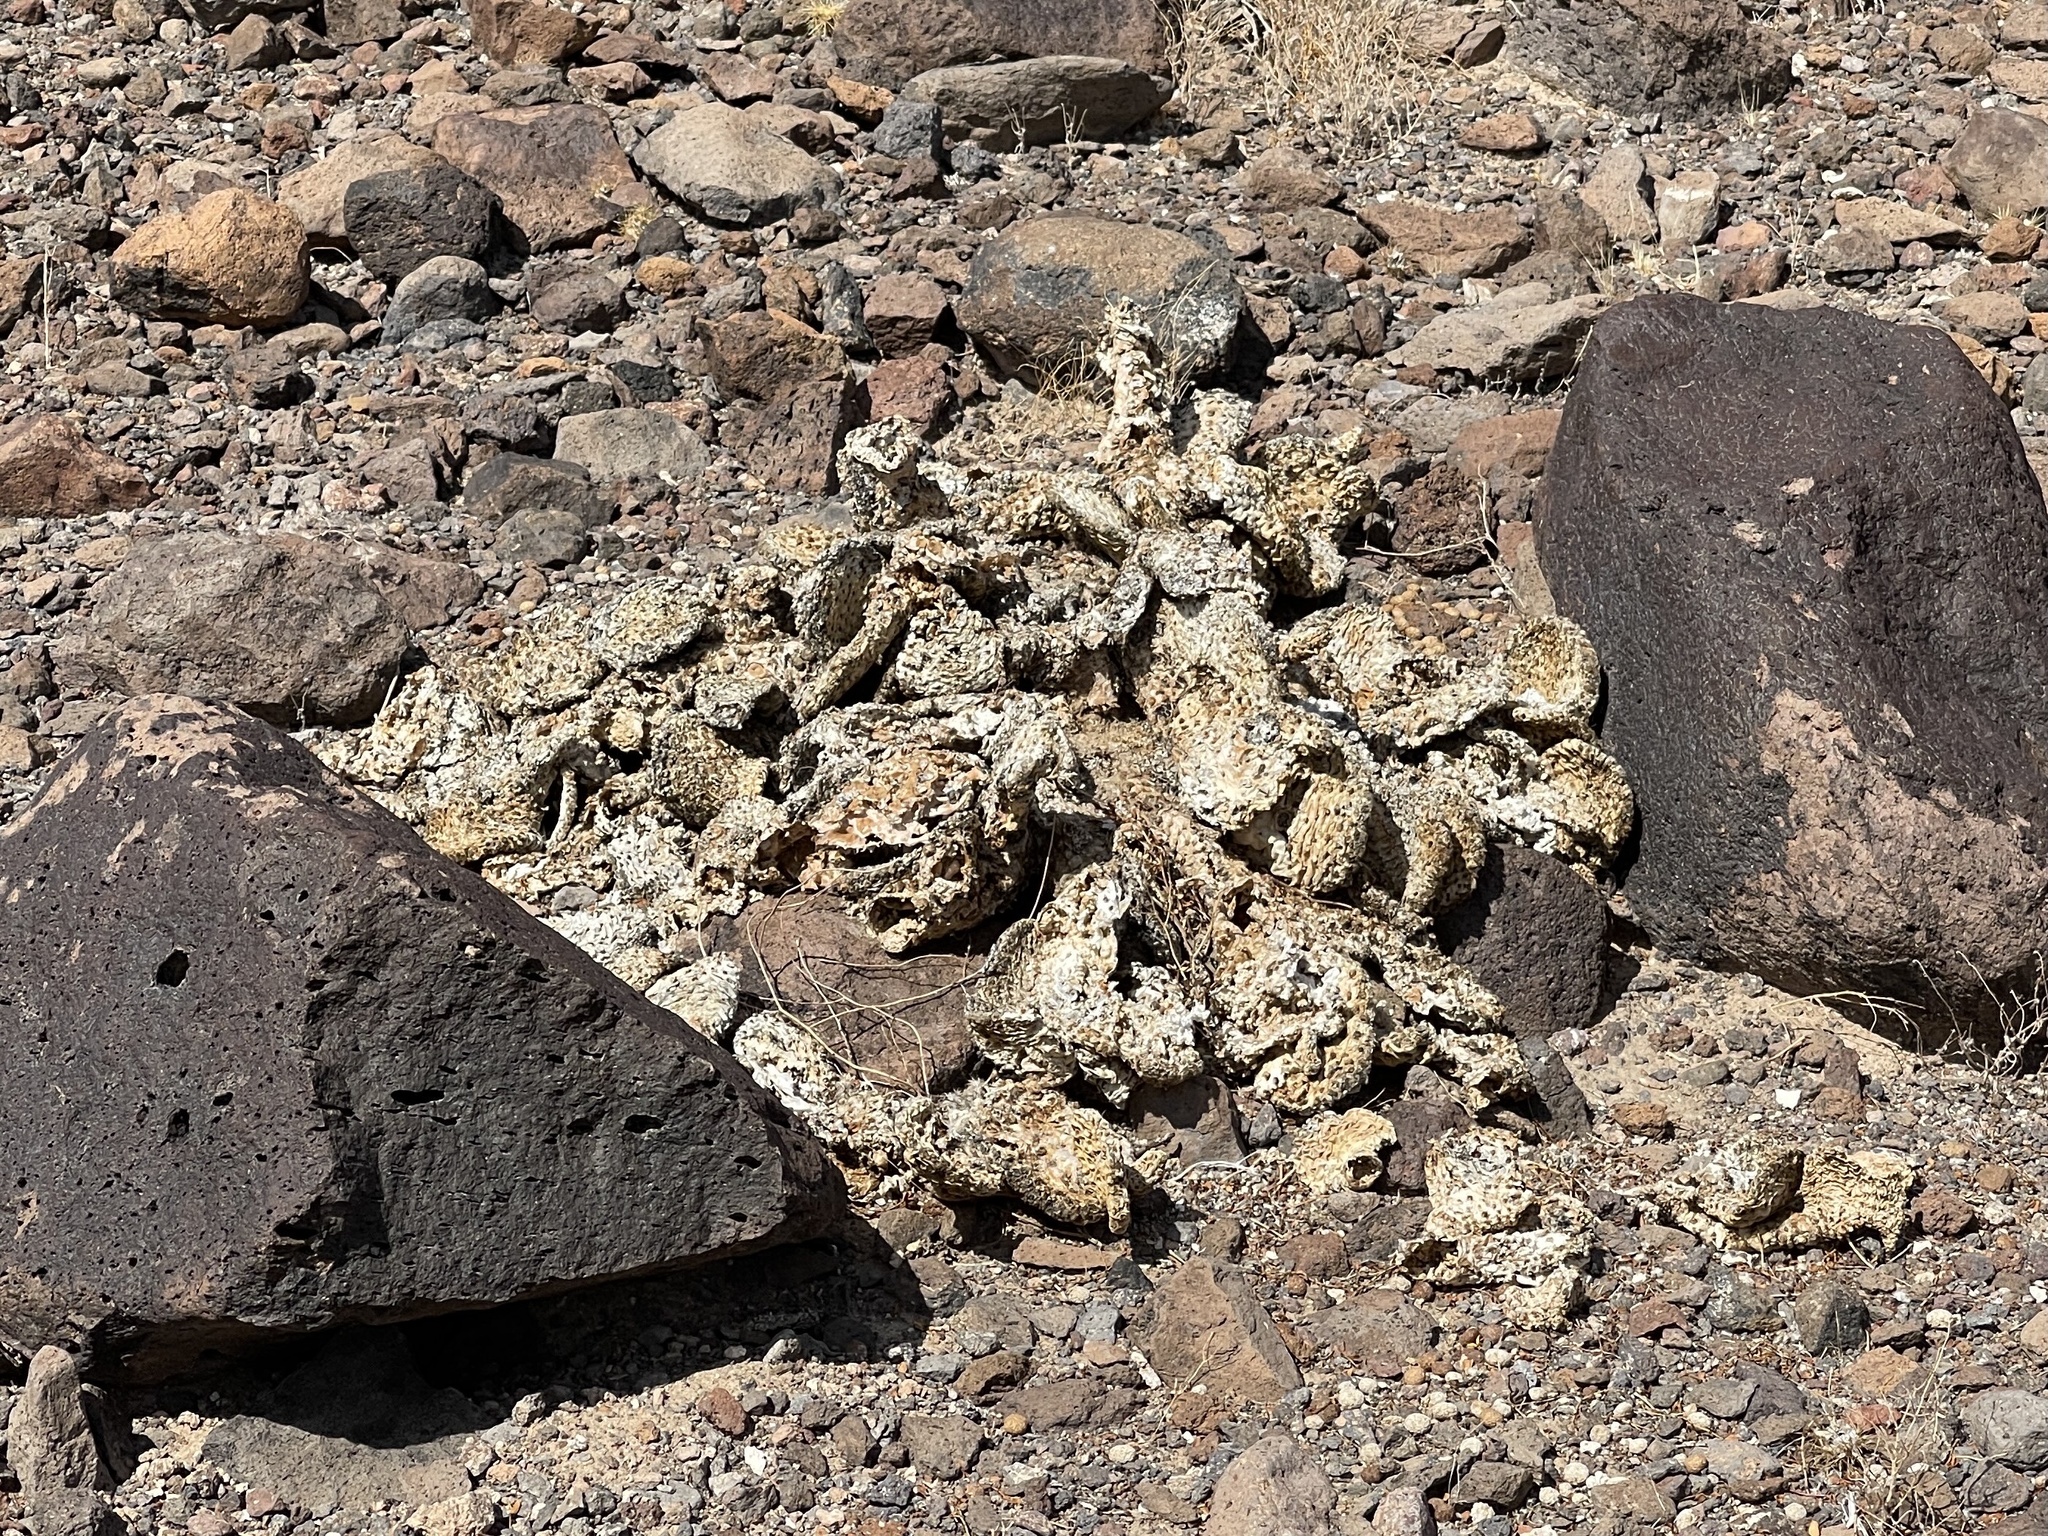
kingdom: Plantae
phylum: Tracheophyta
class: Magnoliopsida
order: Caryophyllales
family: Cactaceae
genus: Opuntia
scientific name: Opuntia basilaris
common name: Beavertail prickly-pear
